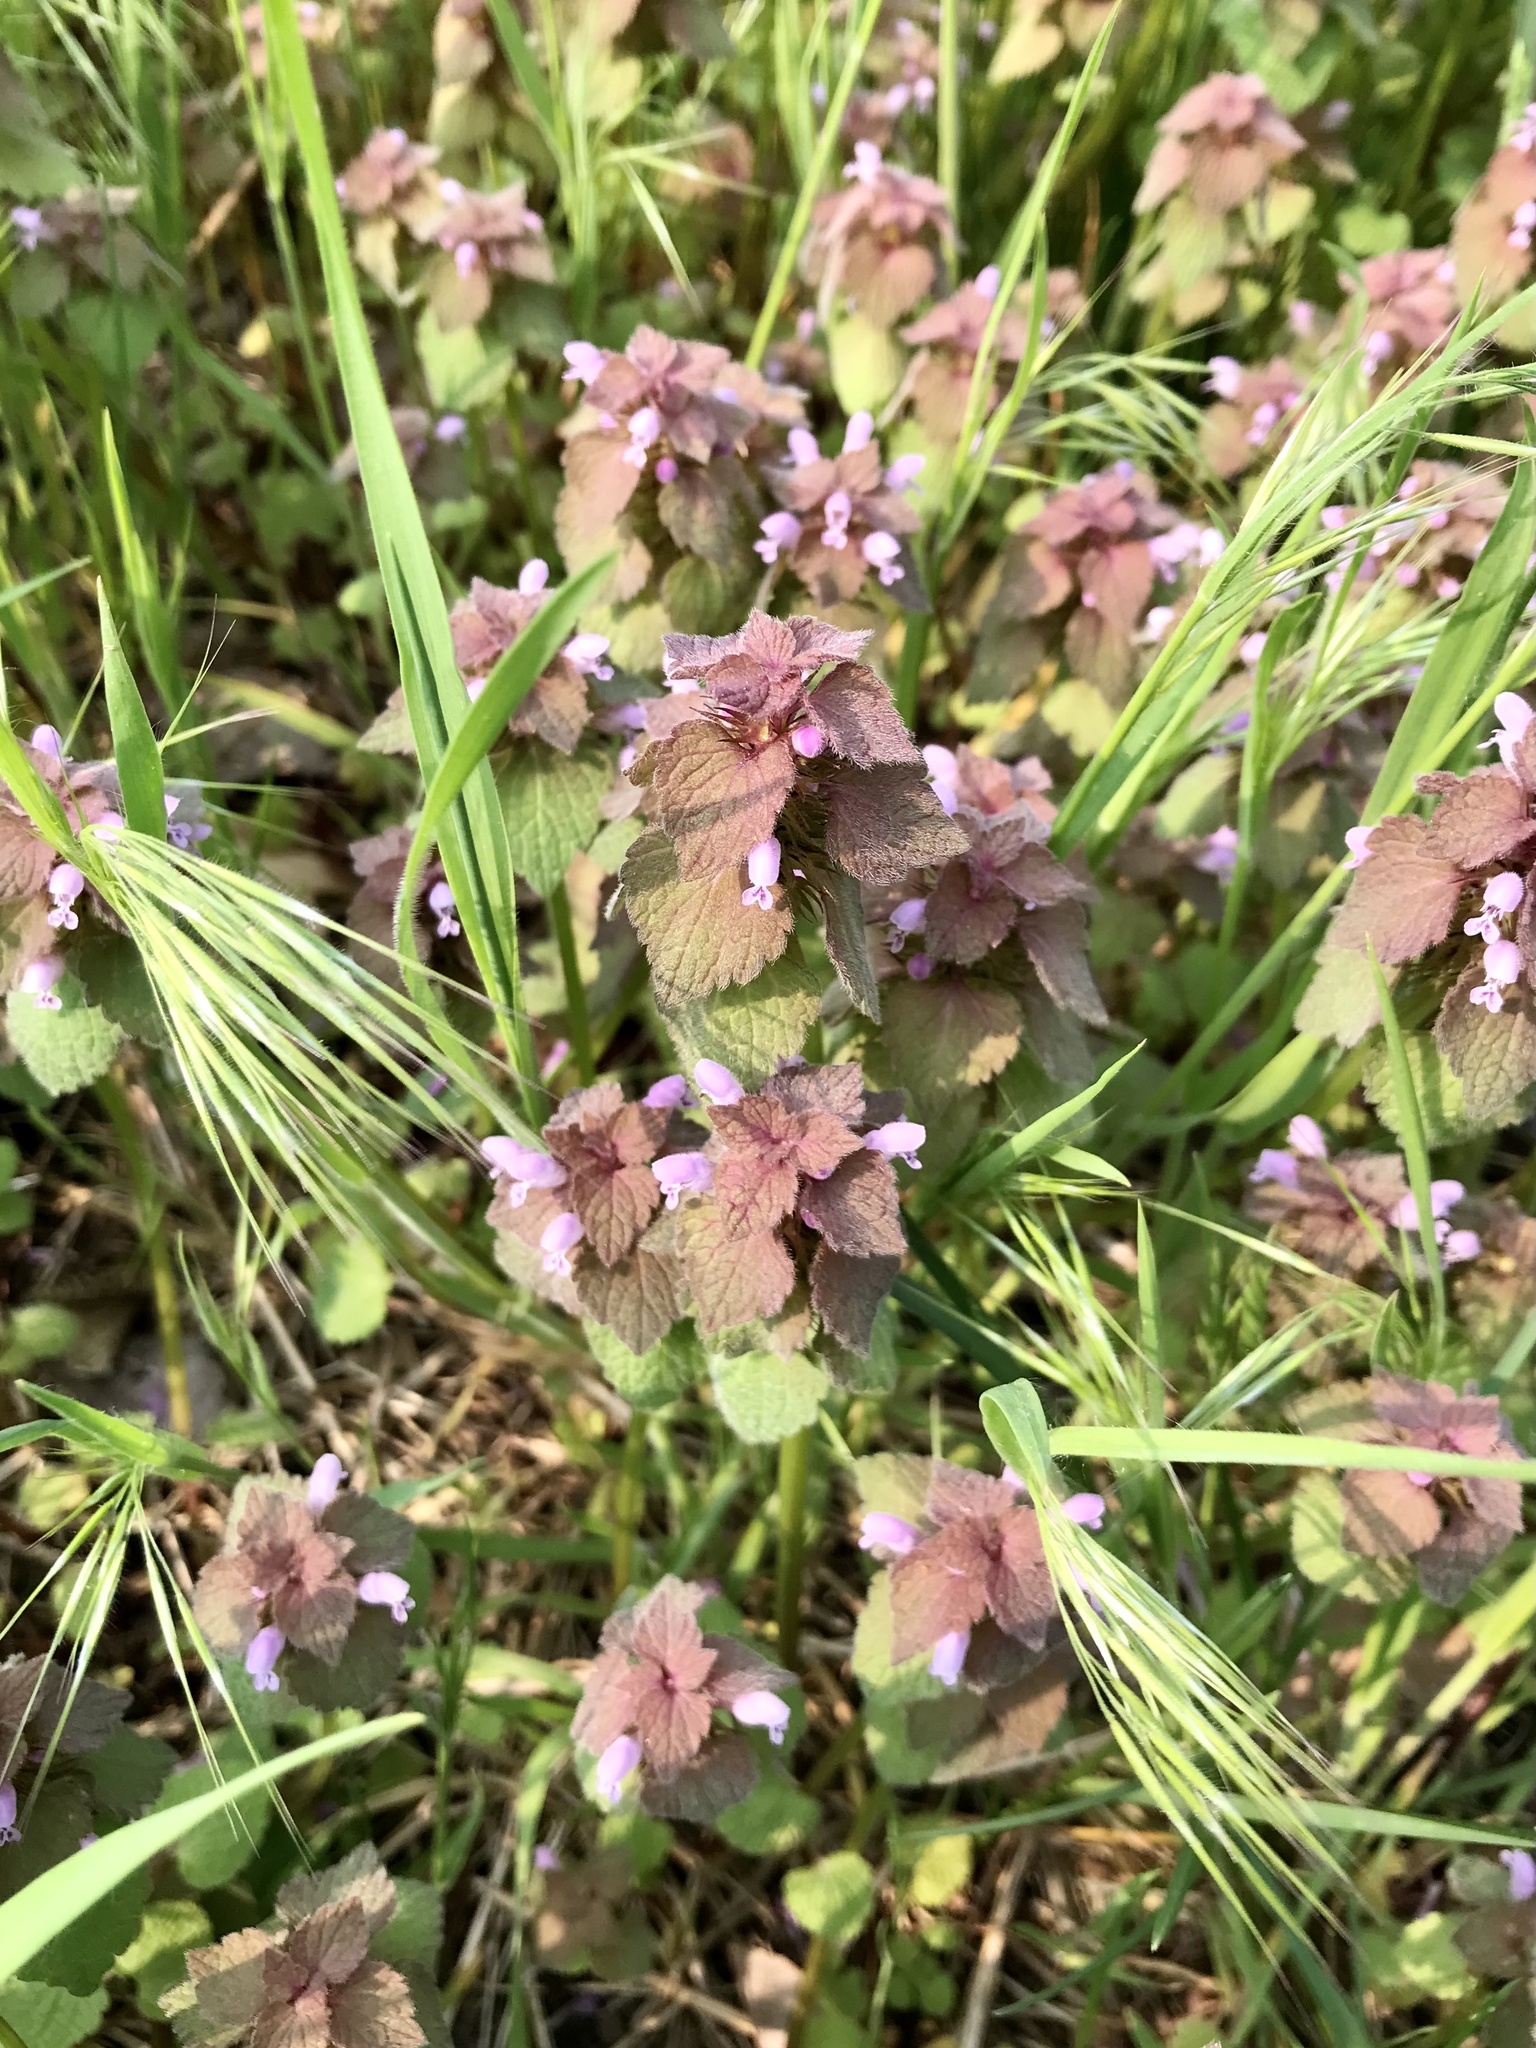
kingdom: Plantae
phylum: Tracheophyta
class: Magnoliopsida
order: Lamiales
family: Lamiaceae
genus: Lamium
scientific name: Lamium purpureum
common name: Red dead-nettle
